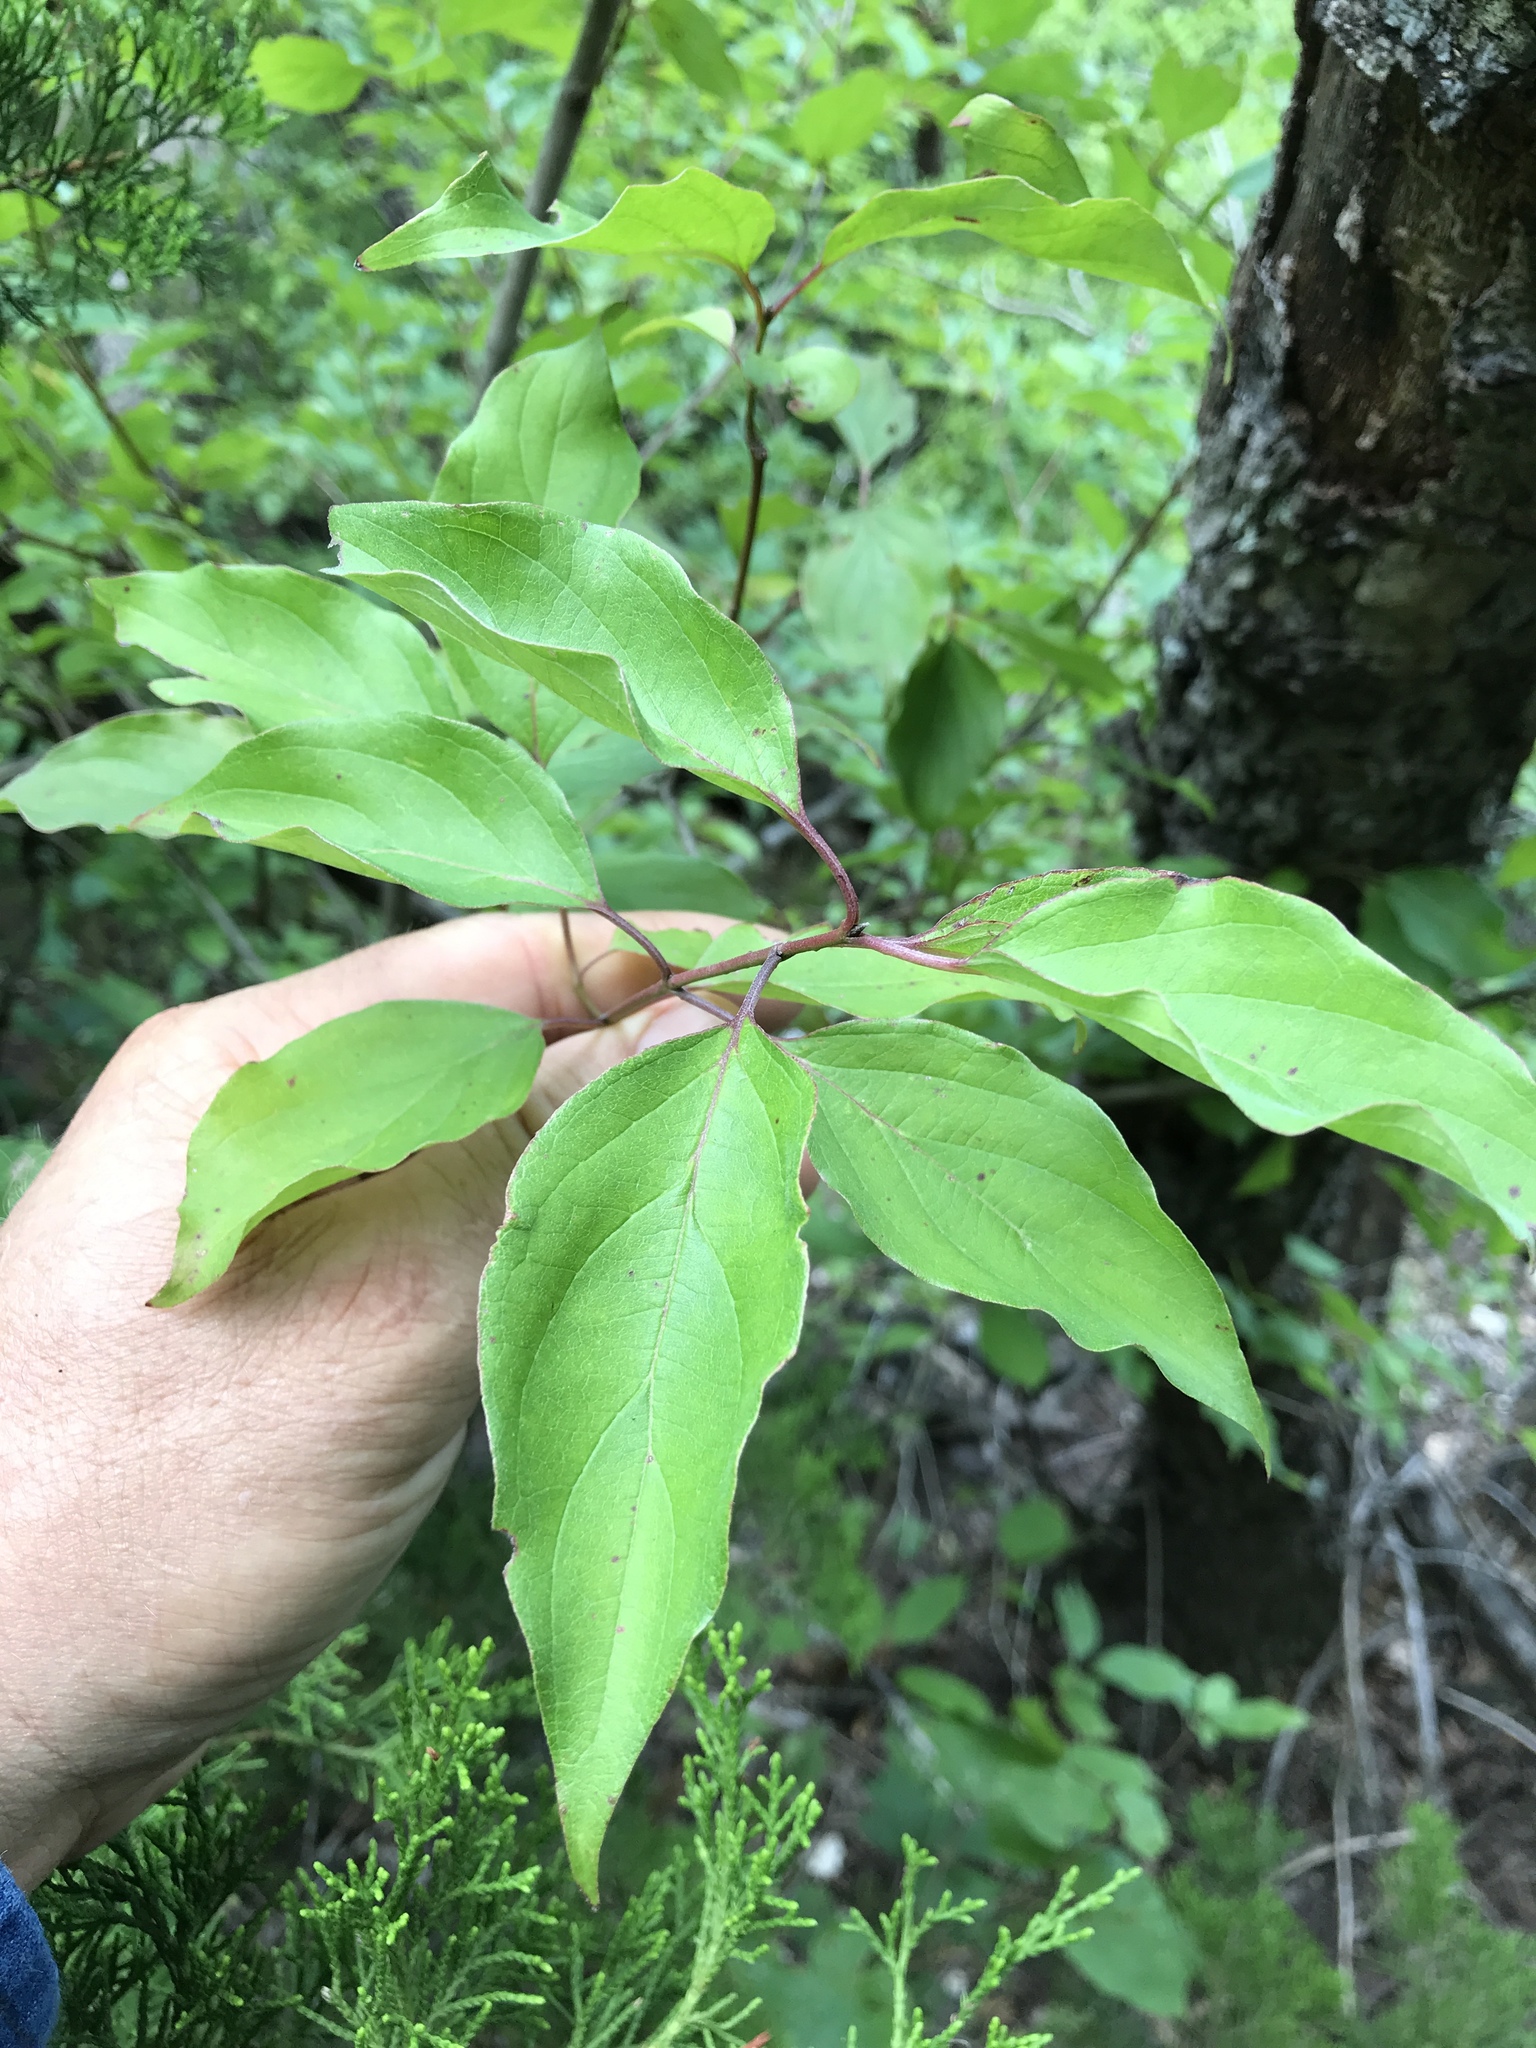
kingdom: Plantae
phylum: Tracheophyta
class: Magnoliopsida
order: Cornales
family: Cornaceae
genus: Cornus
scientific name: Cornus drummondii
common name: Rough-leaf dogwood
